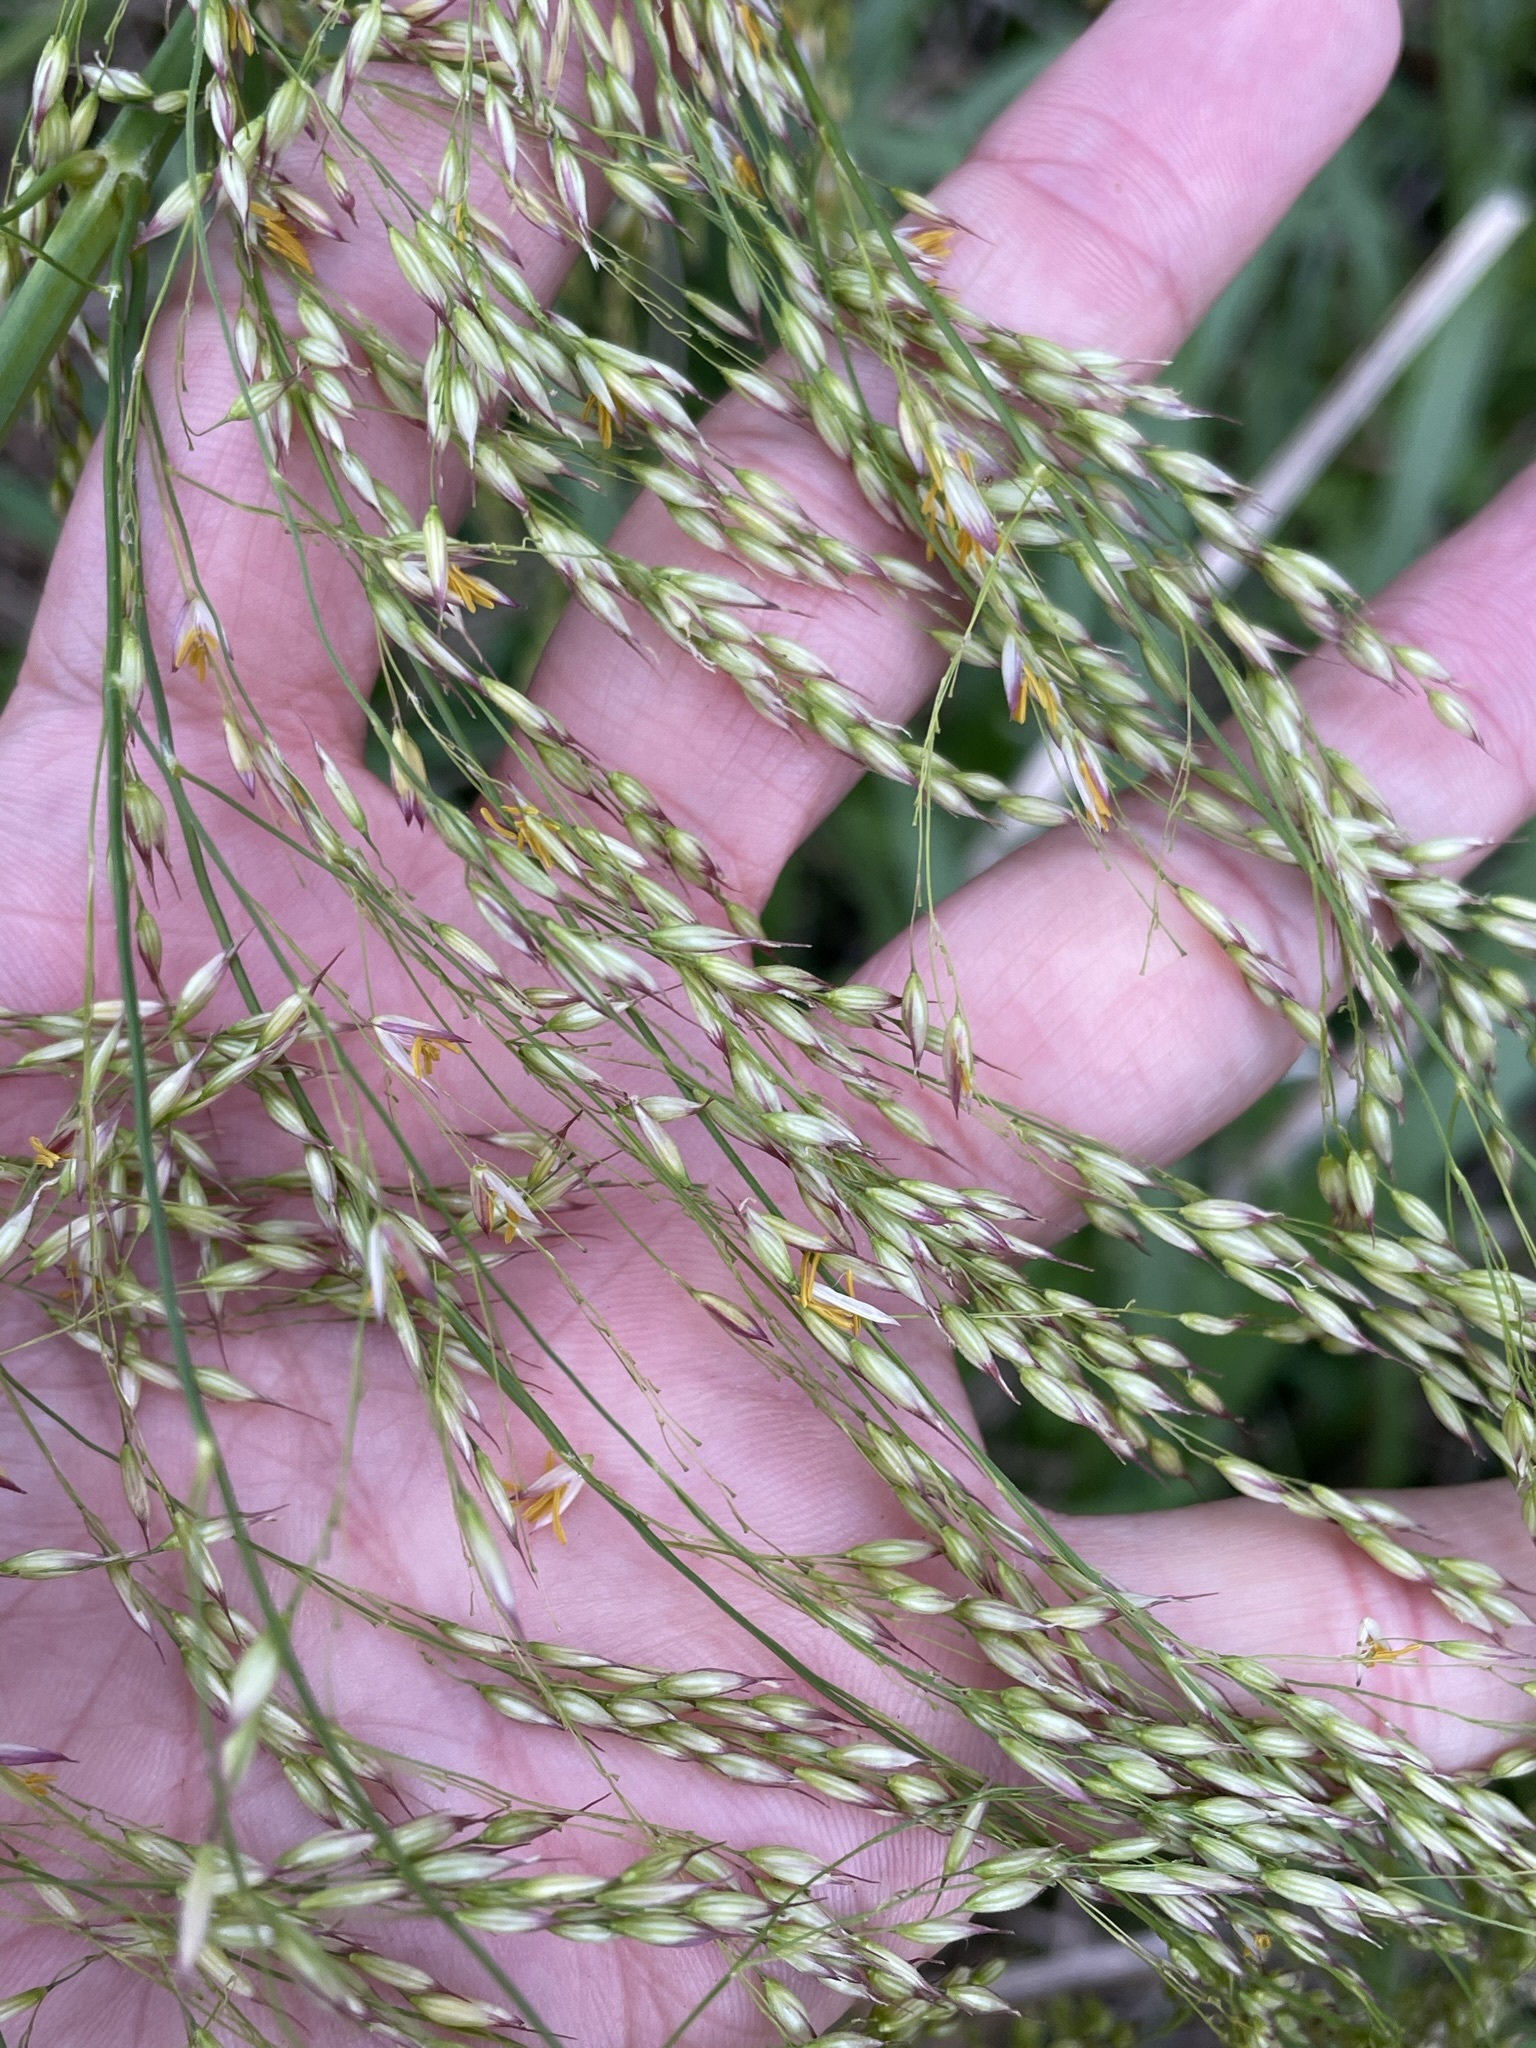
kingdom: Plantae
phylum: Tracheophyta
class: Liliopsida
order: Poales
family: Poaceae
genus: Zizaniopsis
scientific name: Zizaniopsis miliacea
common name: Giant-cutgrass
